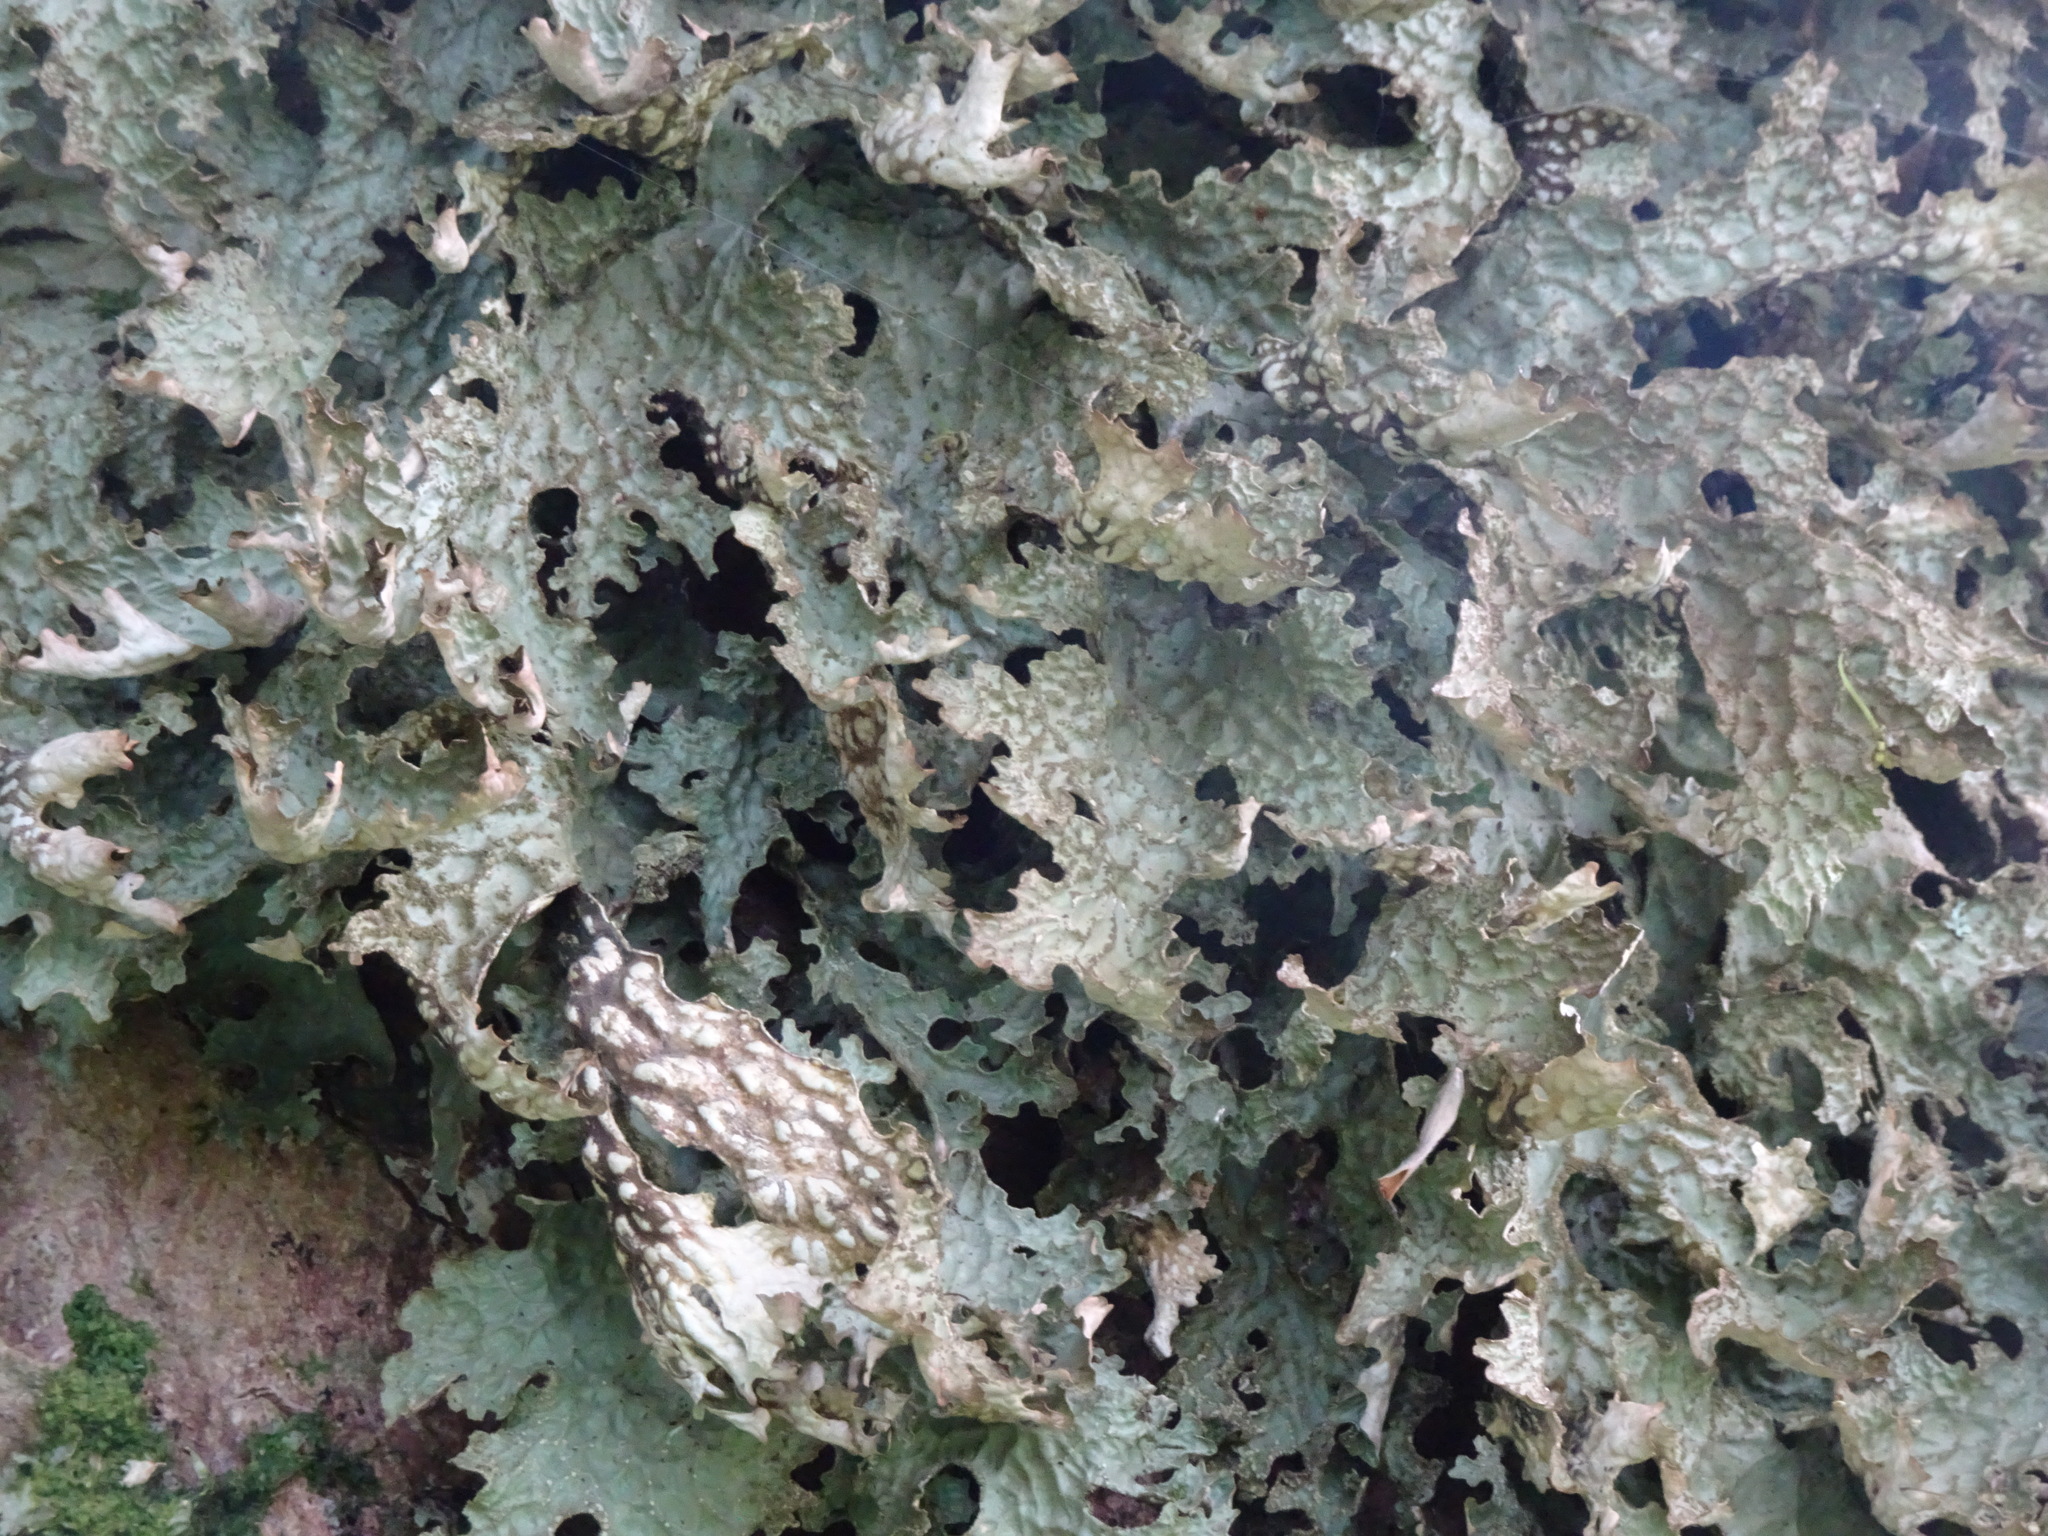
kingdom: Fungi
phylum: Ascomycota
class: Lecanoromycetes
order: Peltigerales
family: Lobariaceae
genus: Lobaria
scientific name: Lobaria pulmonaria
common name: Lungwort
